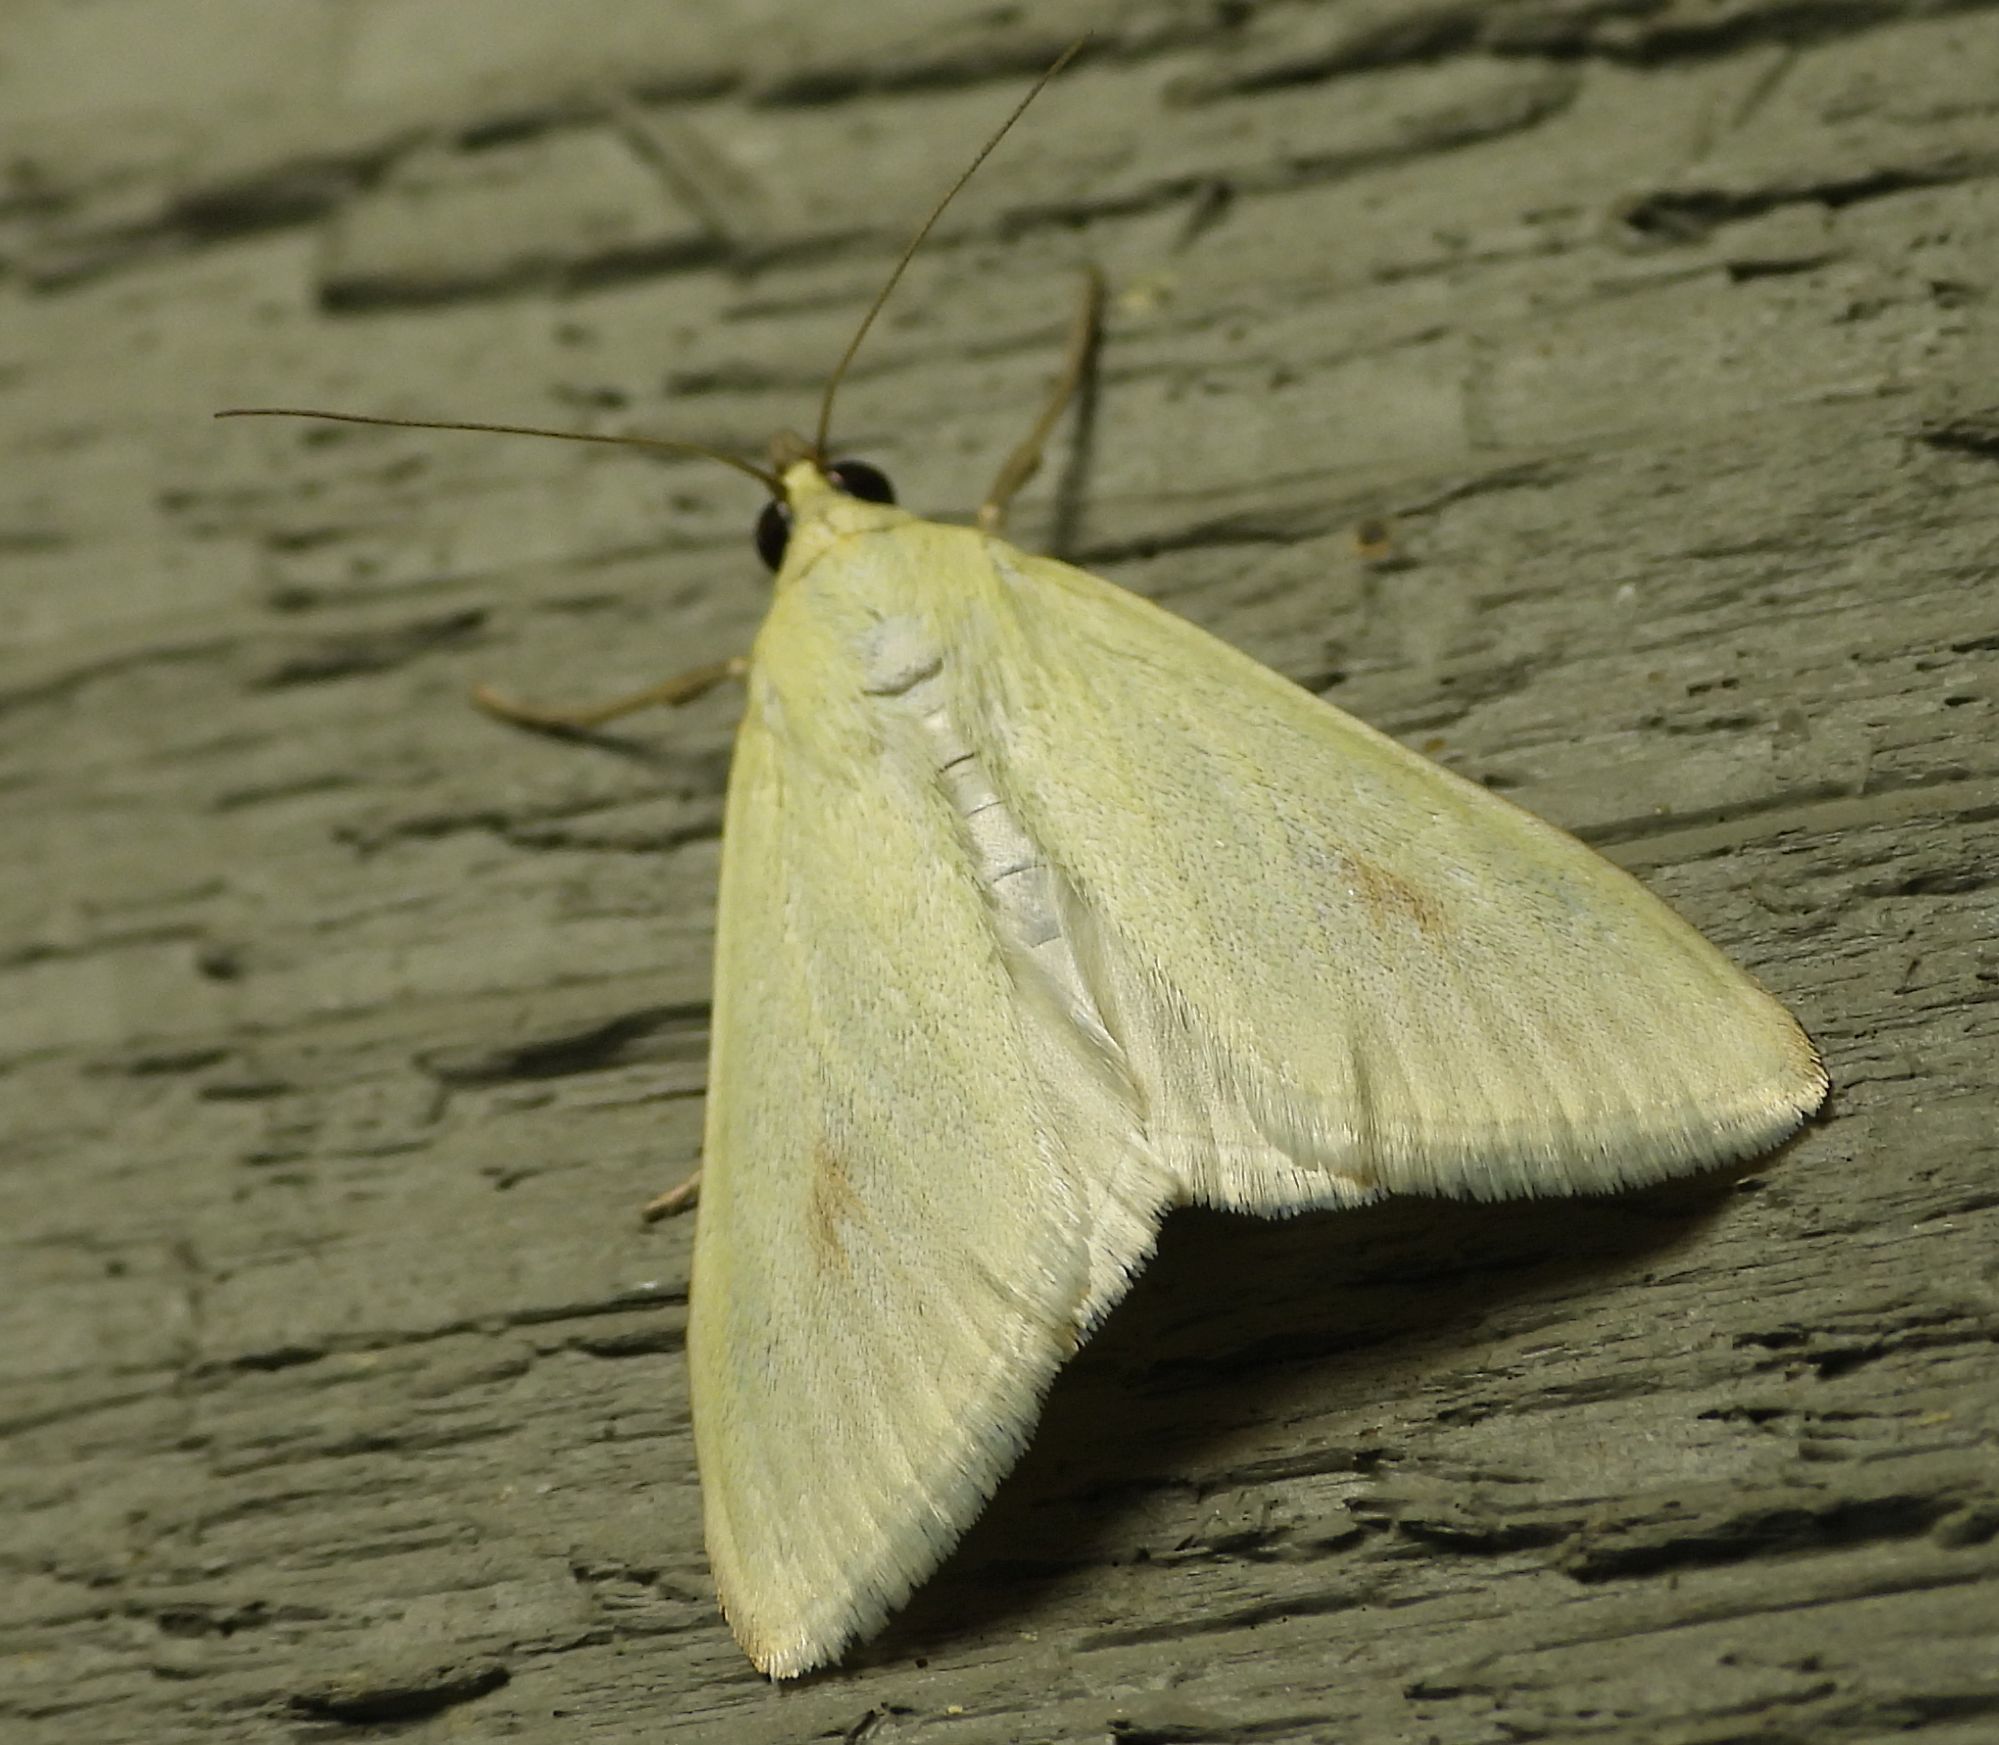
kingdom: Animalia
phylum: Arthropoda
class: Insecta
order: Lepidoptera
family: Crambidae
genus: Sitochroa
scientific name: Sitochroa palealis
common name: Greenish-yellow sitochroa moth
